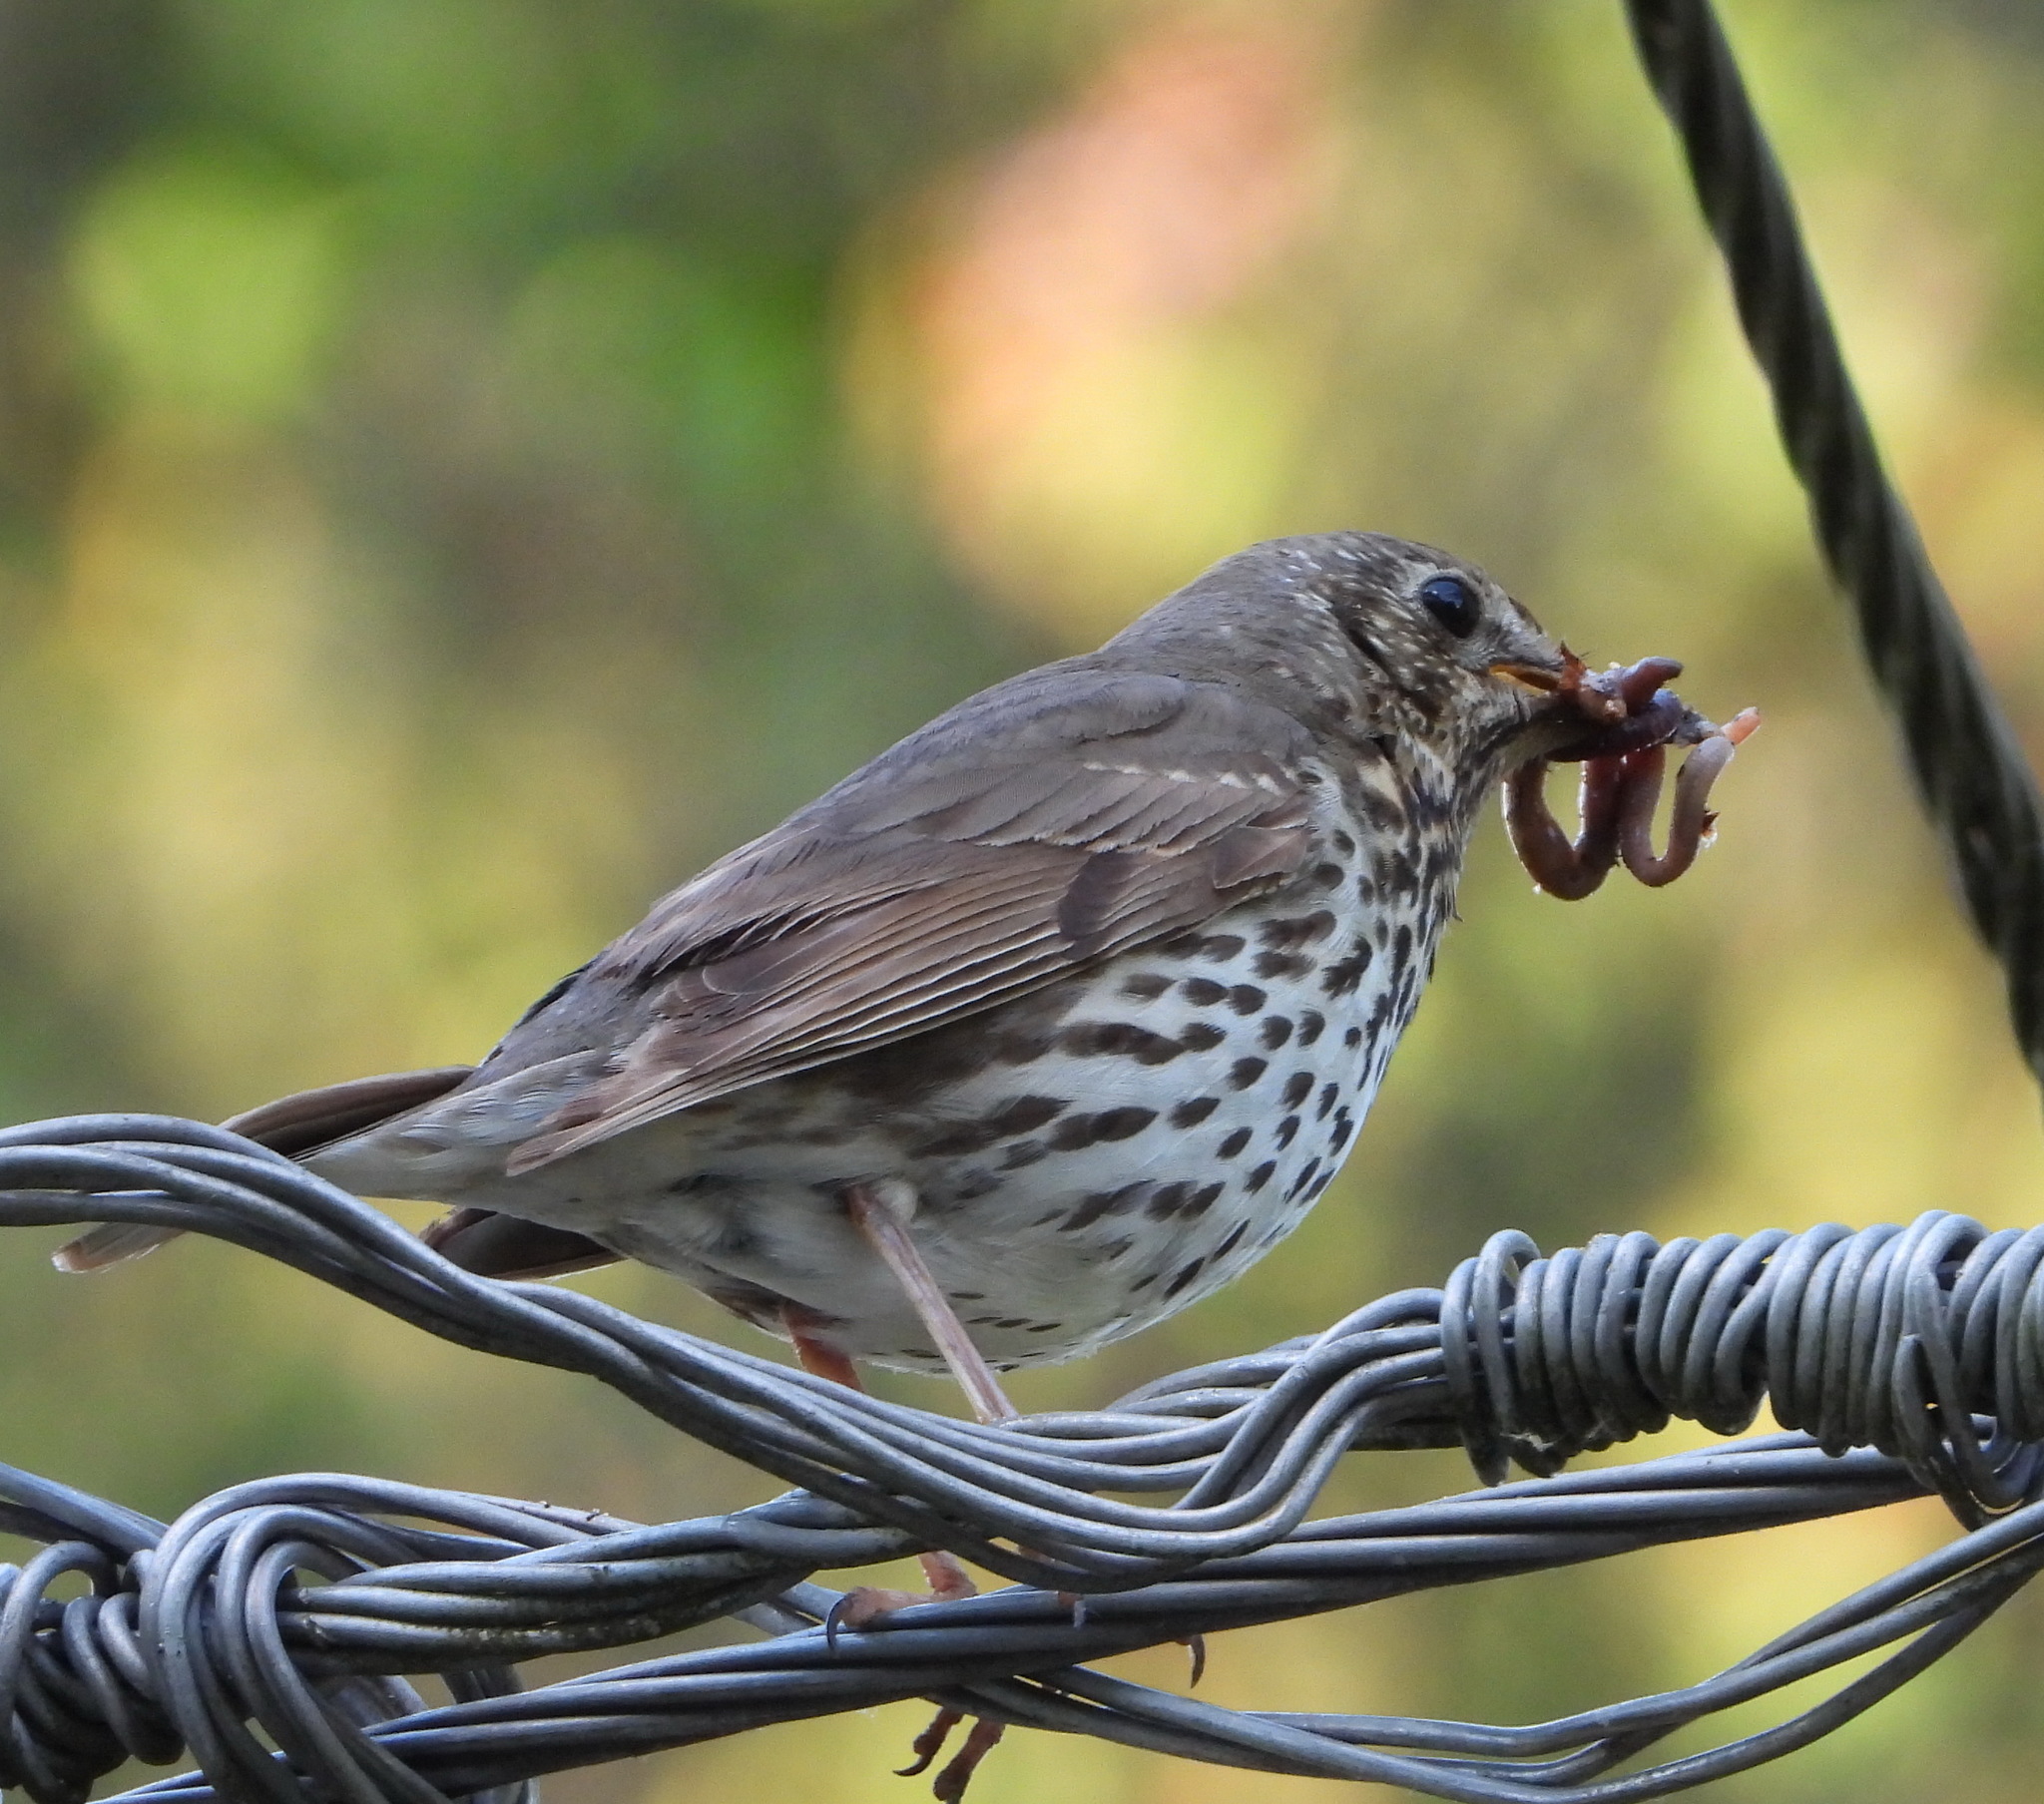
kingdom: Animalia
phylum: Chordata
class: Aves
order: Passeriformes
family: Turdidae
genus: Turdus
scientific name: Turdus philomelos
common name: Song thrush
